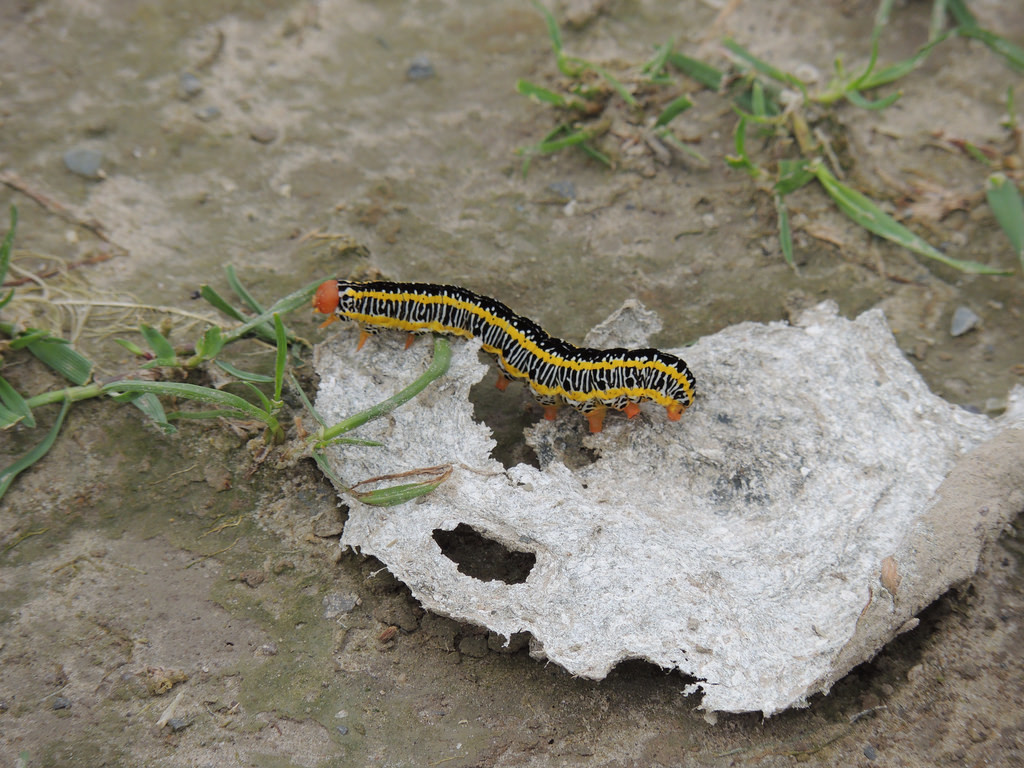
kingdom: Animalia
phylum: Arthropoda
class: Insecta
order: Lepidoptera
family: Noctuidae
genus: Melanchra
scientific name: Melanchra picta
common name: Zebra caterpillar
